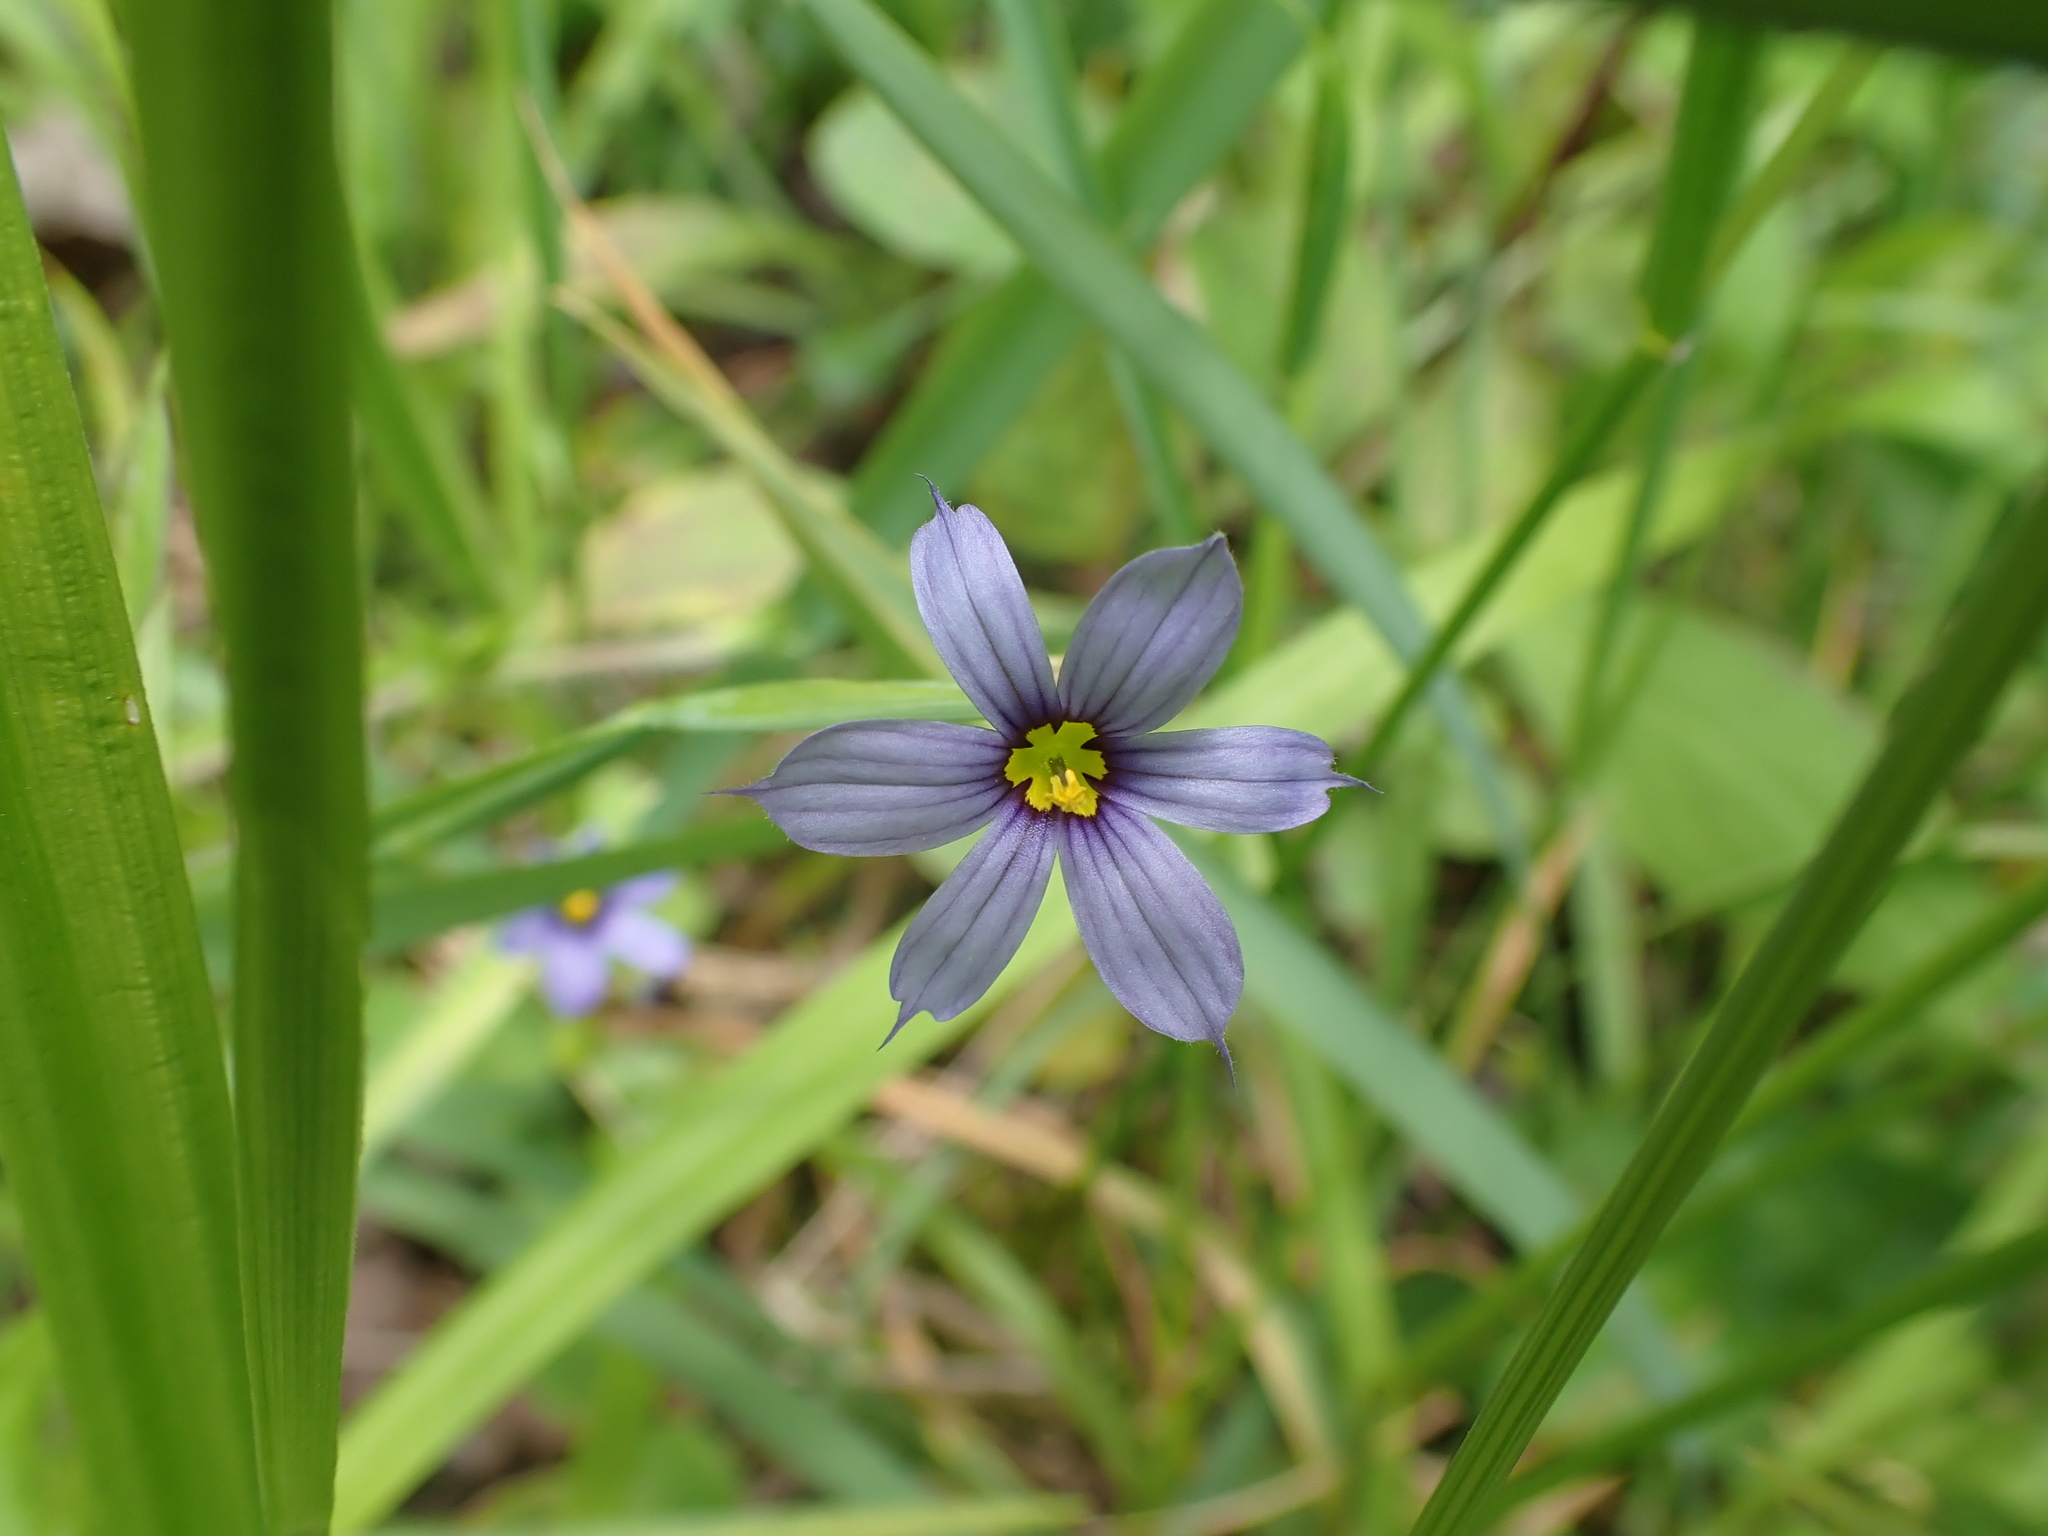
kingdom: Plantae
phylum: Tracheophyta
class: Liliopsida
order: Asparagales
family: Iridaceae
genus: Sisyrinchium
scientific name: Sisyrinchium angustifolium
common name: Narrow-leaf blue-eyed-grass
